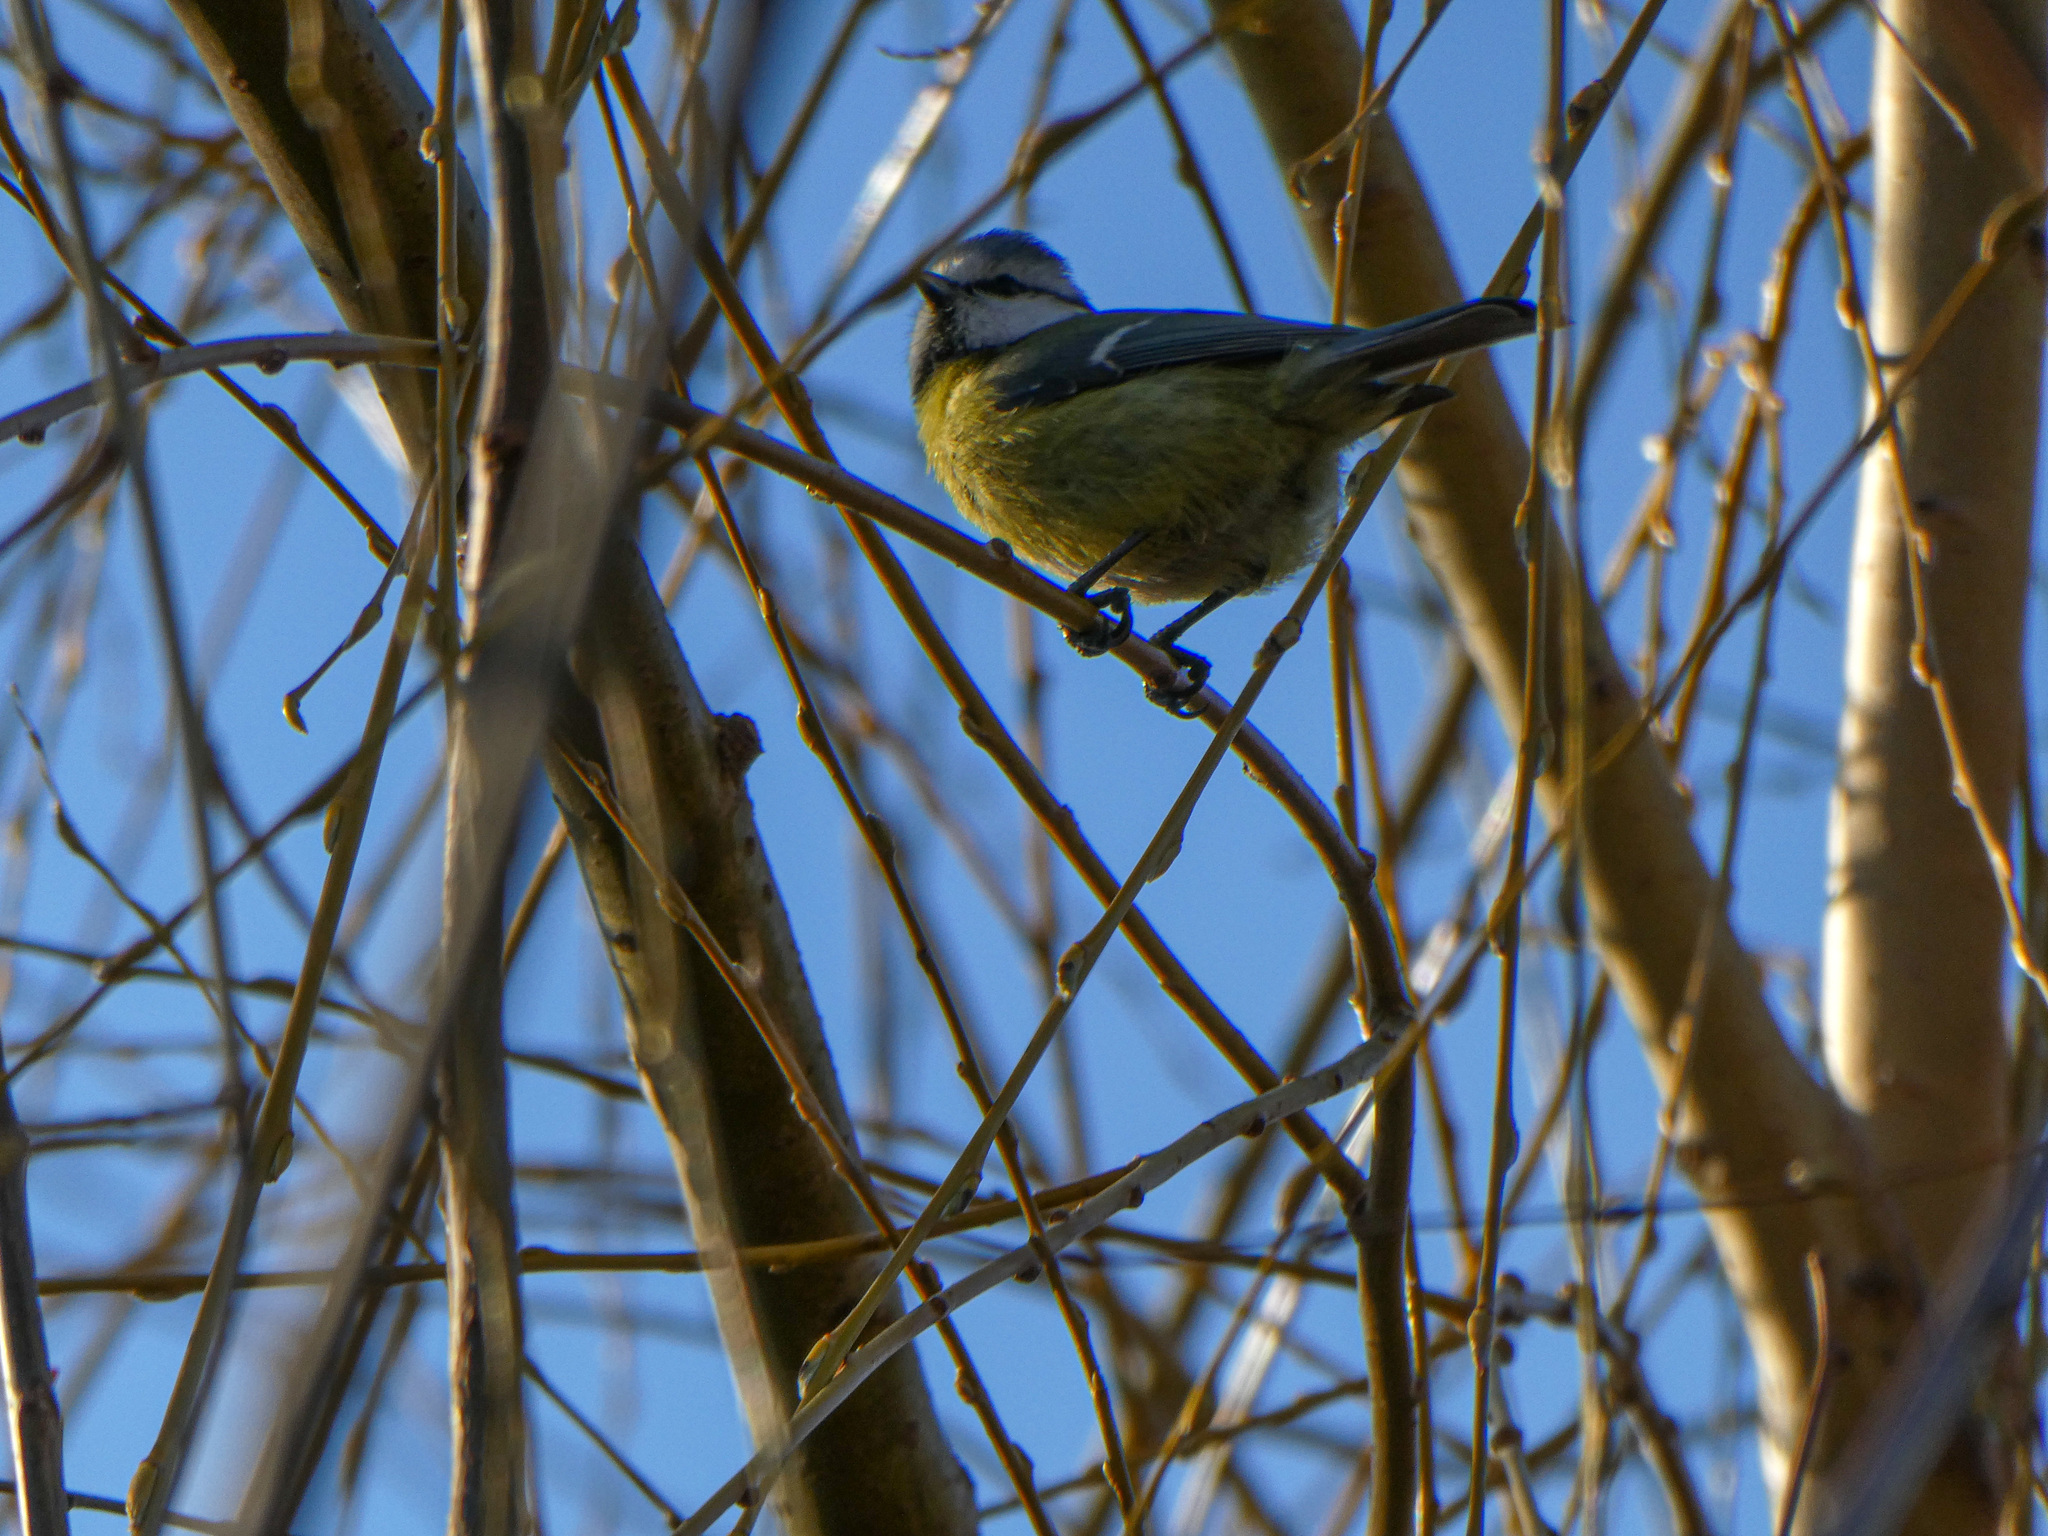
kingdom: Animalia
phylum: Chordata
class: Aves
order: Passeriformes
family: Paridae
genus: Cyanistes
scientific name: Cyanistes caeruleus
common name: Eurasian blue tit
